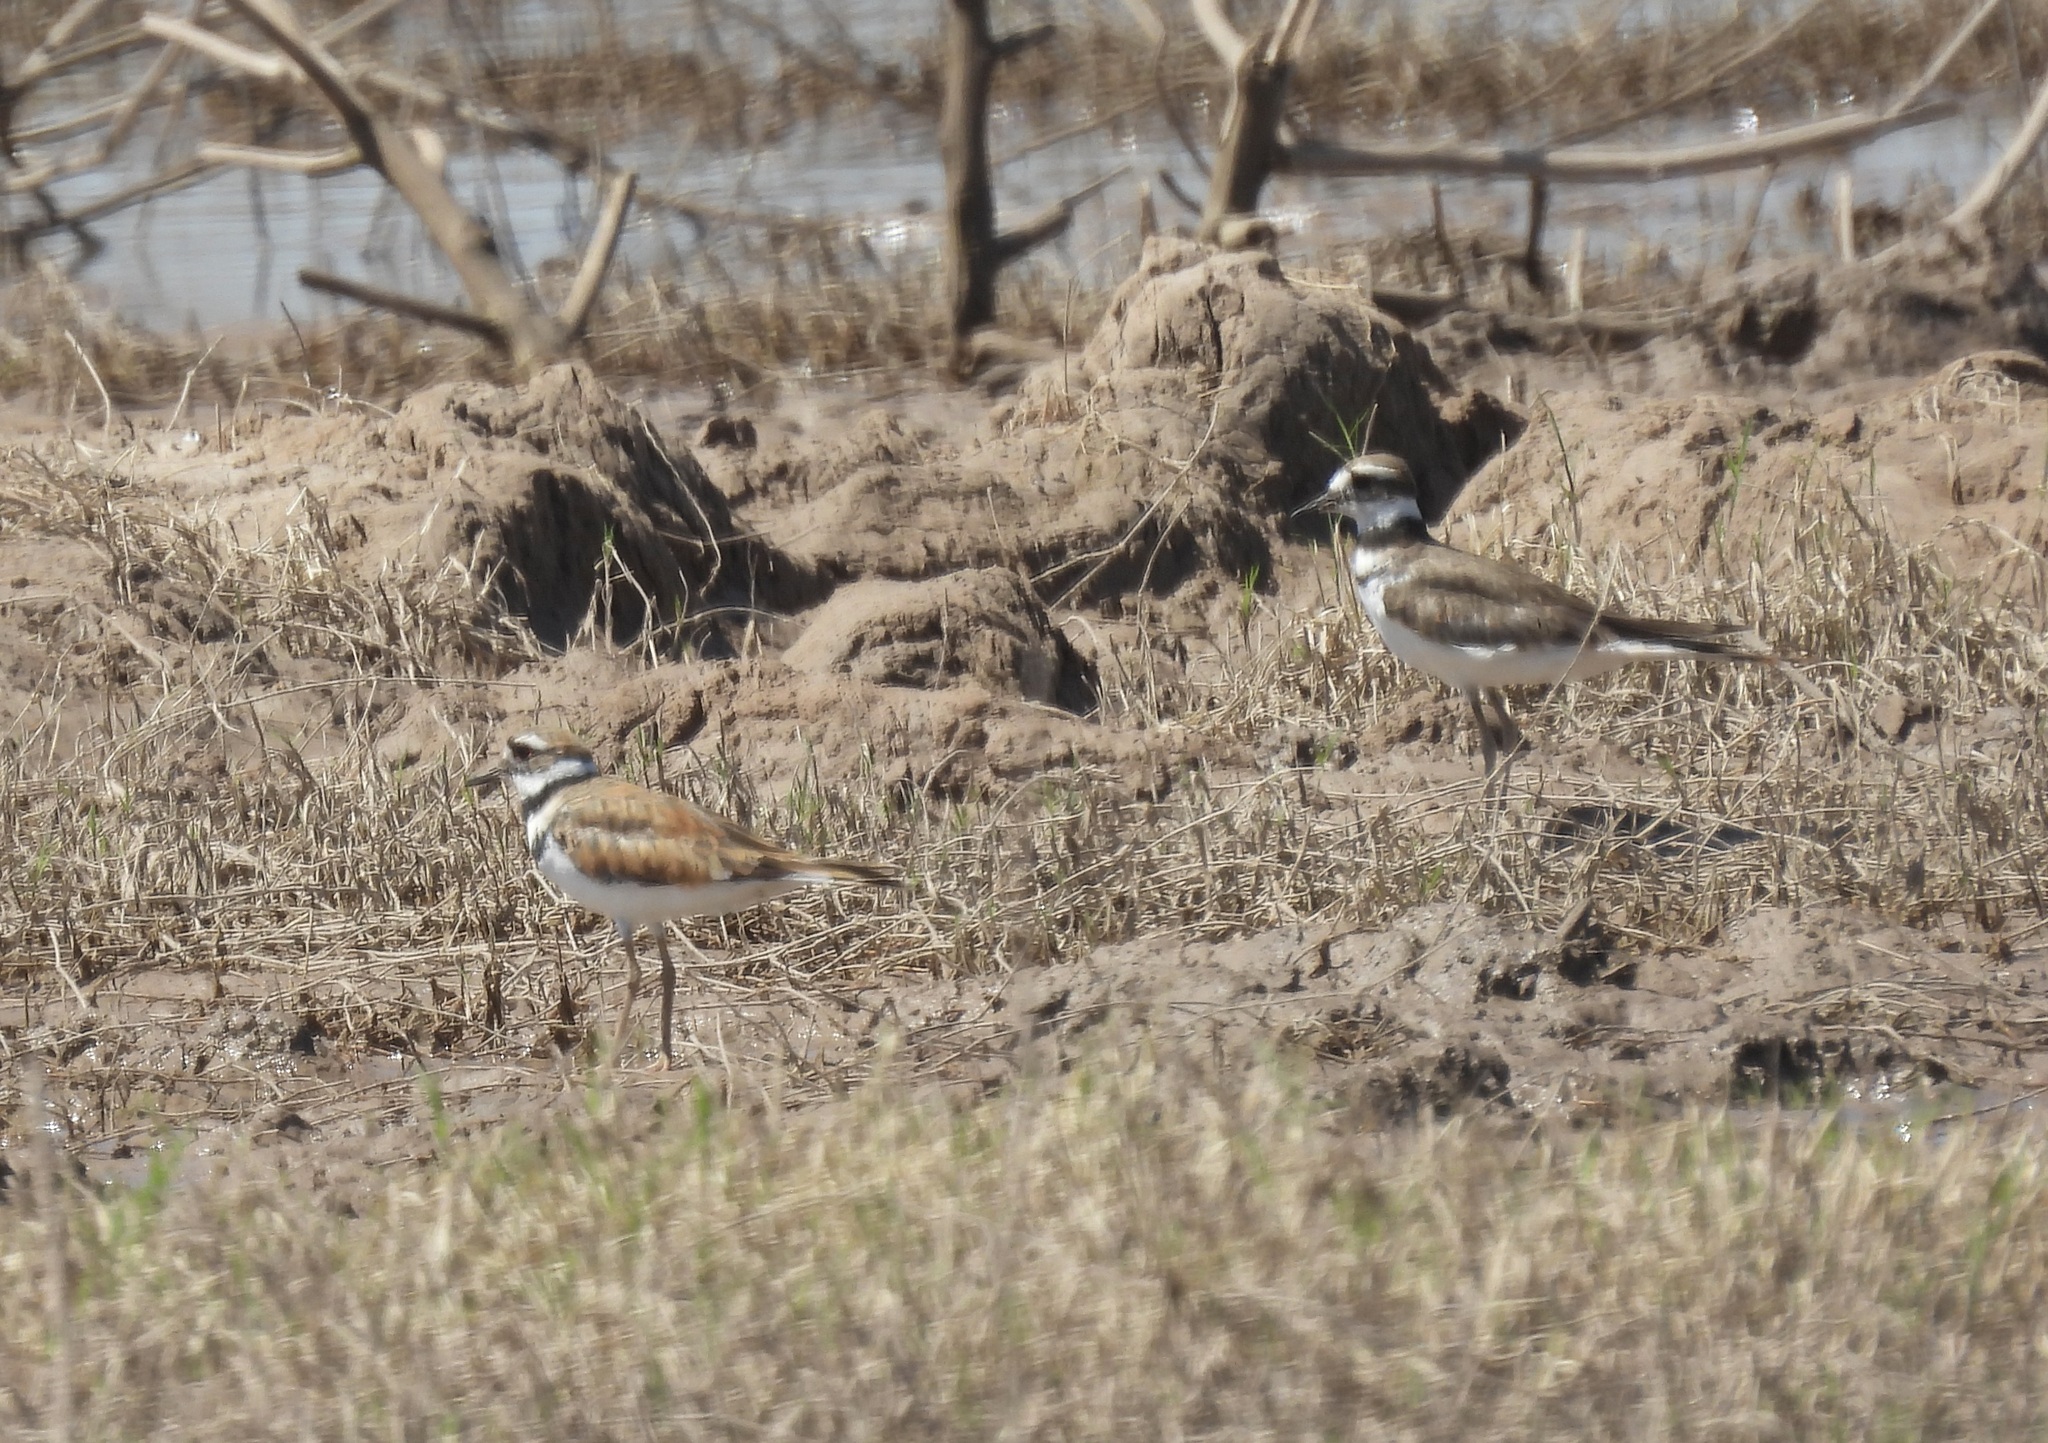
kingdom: Animalia
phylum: Chordata
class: Aves
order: Charadriiformes
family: Charadriidae
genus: Charadrius
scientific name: Charadrius vociferus
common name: Killdeer
